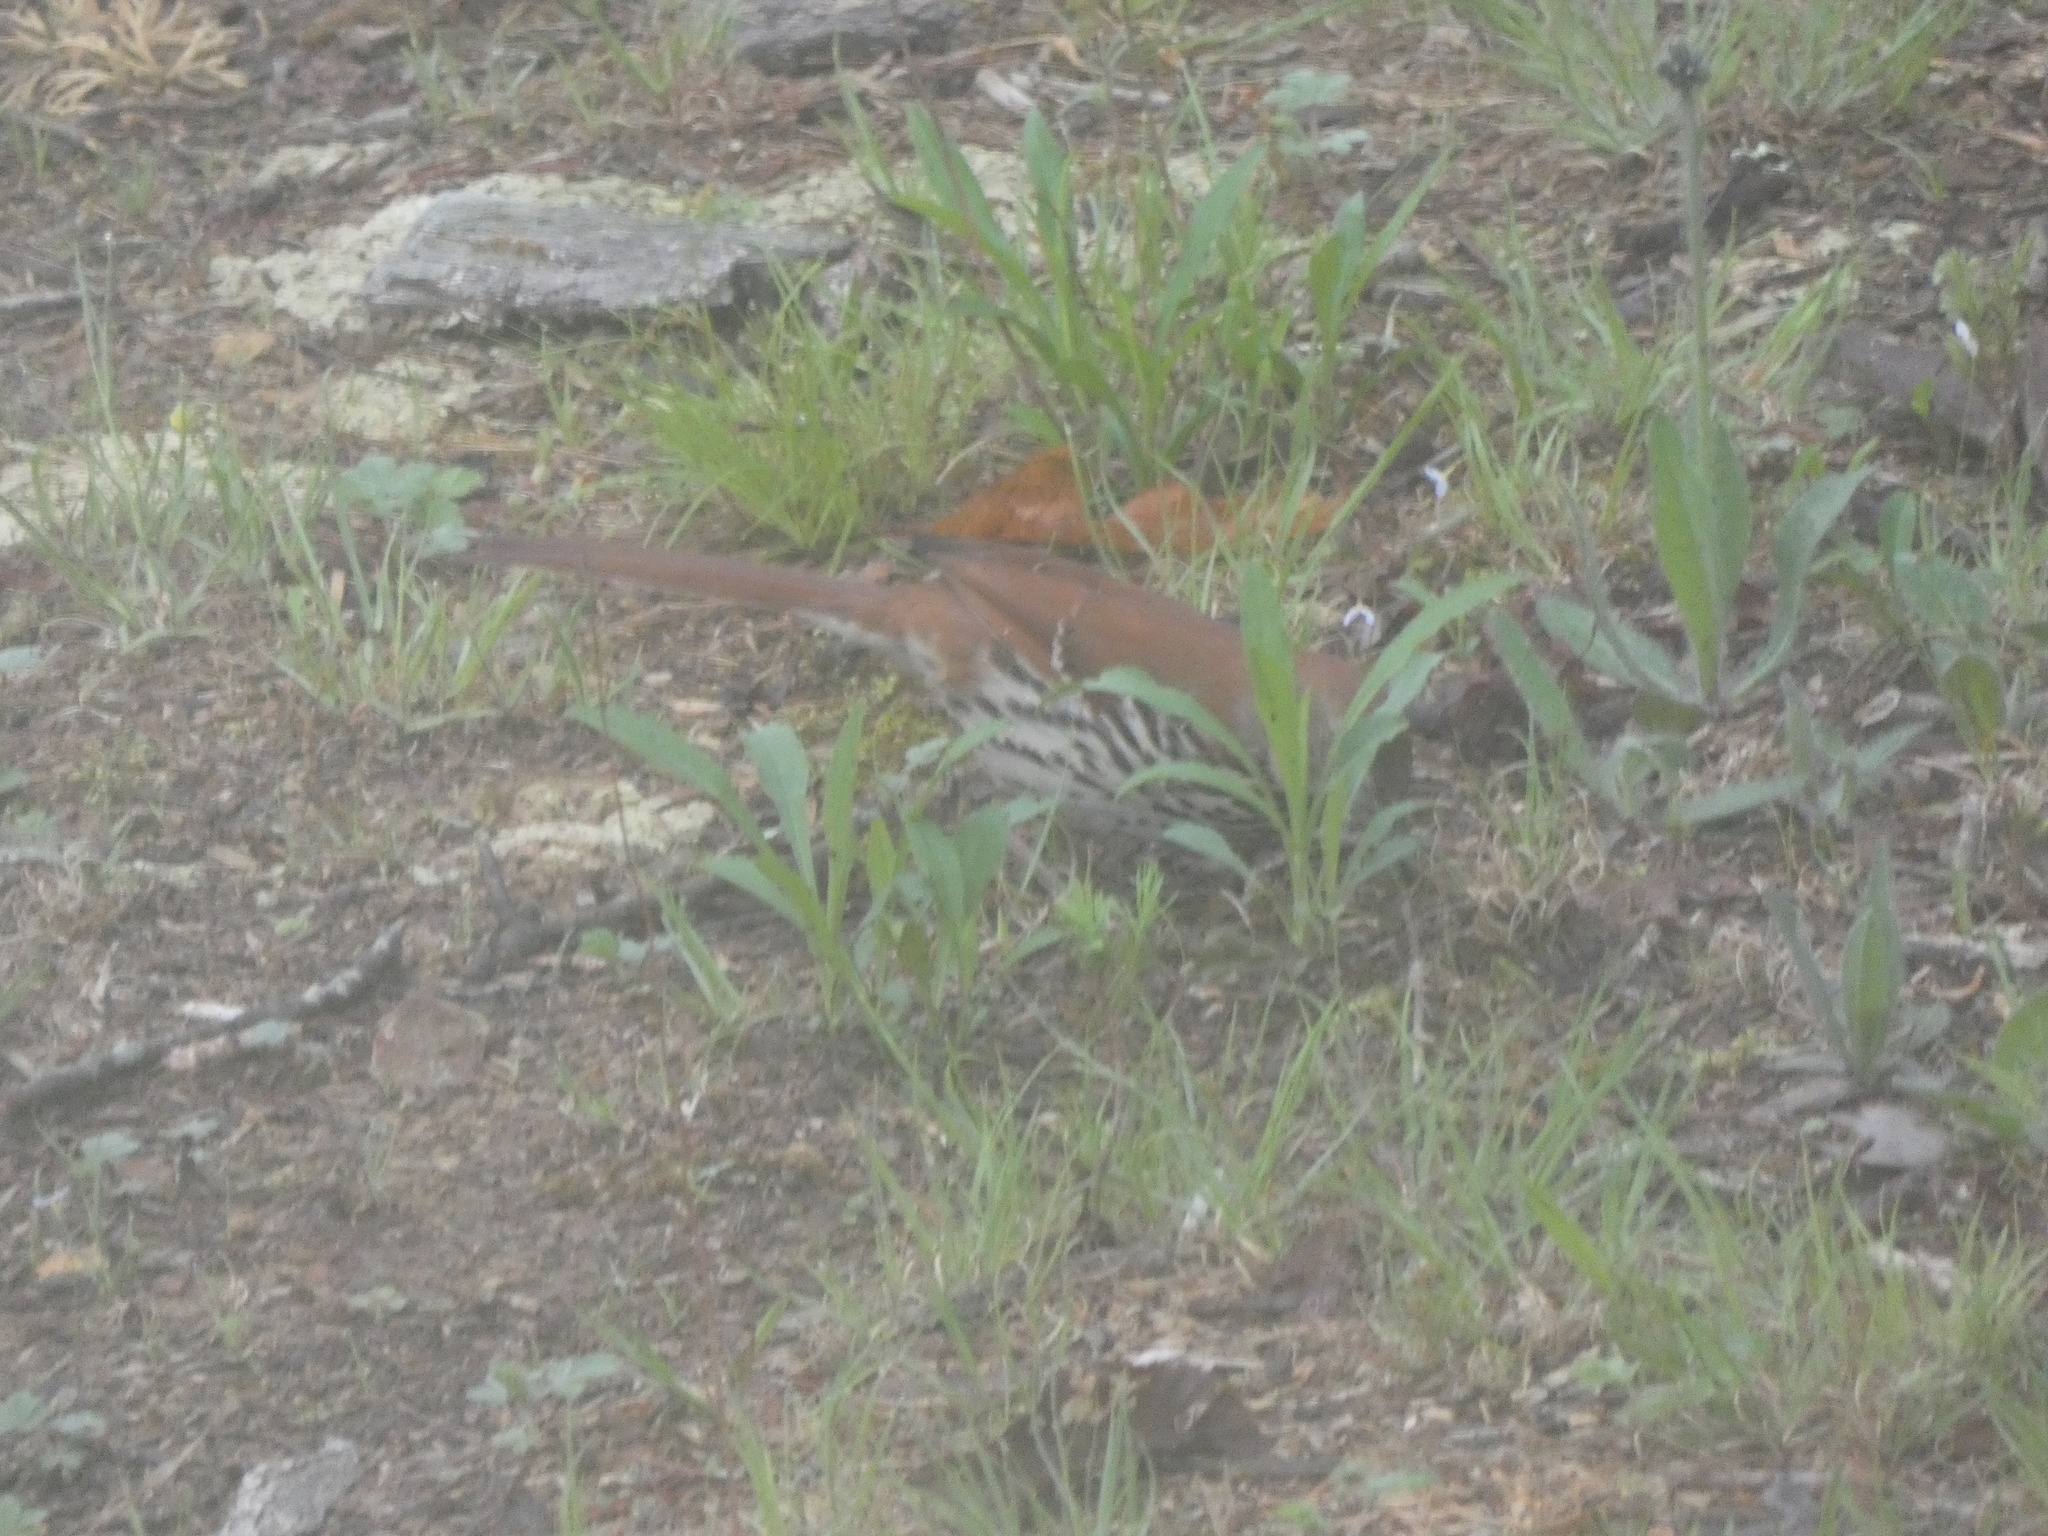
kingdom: Animalia
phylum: Chordata
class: Aves
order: Passeriformes
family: Mimidae
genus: Toxostoma
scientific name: Toxostoma rufum
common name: Brown thrasher
